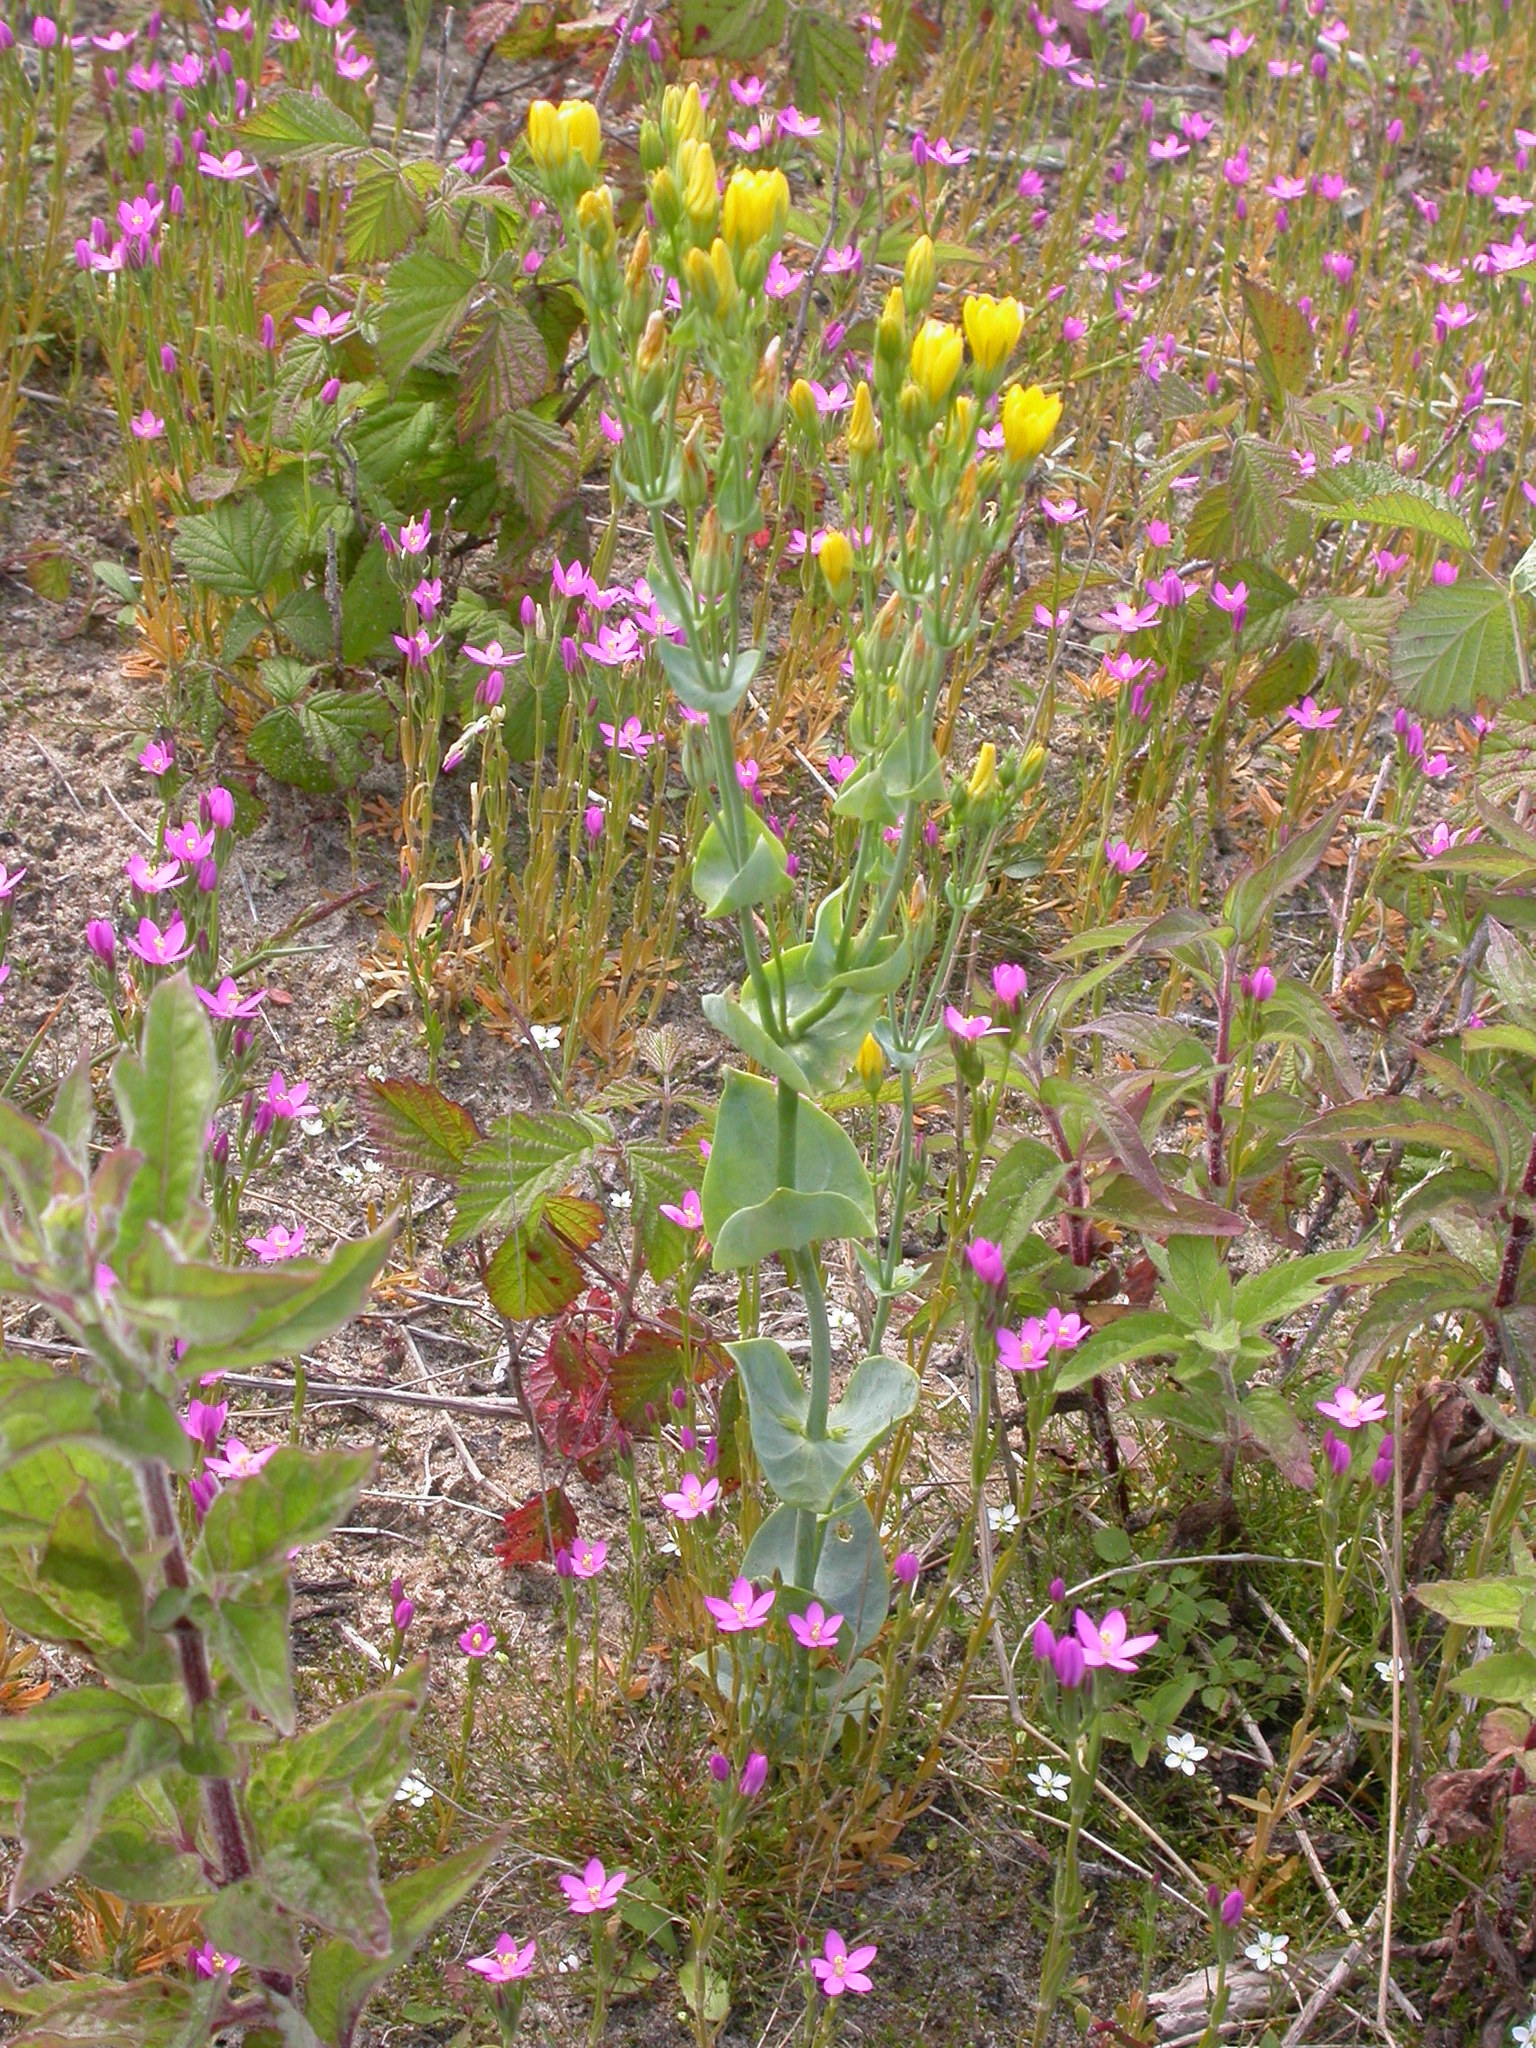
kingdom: Plantae
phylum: Tracheophyta
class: Magnoliopsida
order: Gentianales
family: Gentianaceae
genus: Blackstonia
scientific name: Blackstonia perfoliata
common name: Yellow-wort
